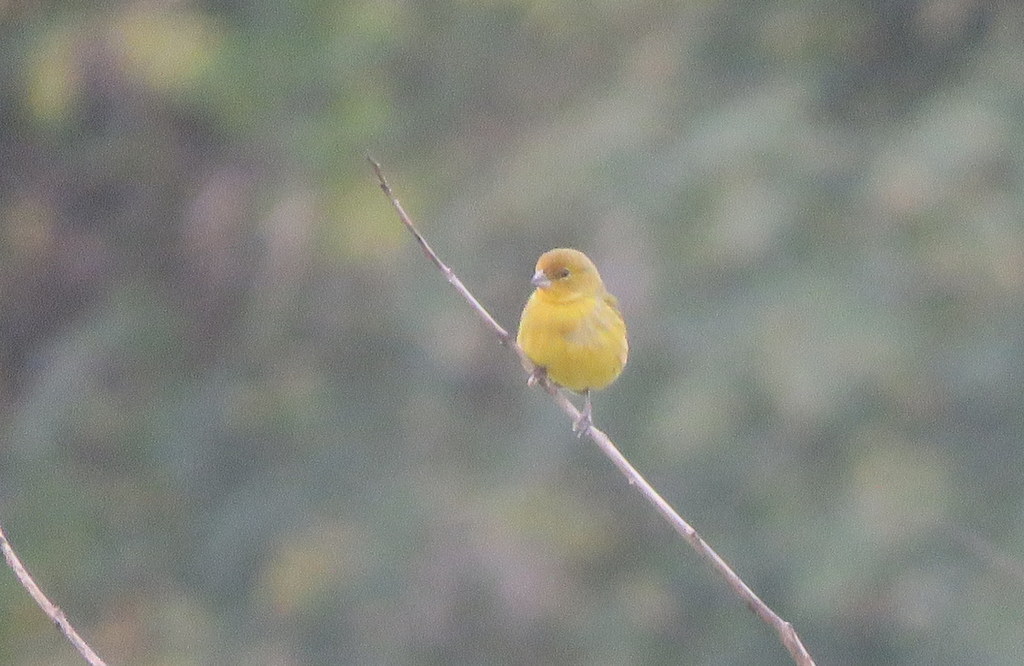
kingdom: Animalia
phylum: Chordata
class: Aves
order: Passeriformes
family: Thraupidae
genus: Sicalis
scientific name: Sicalis flaveola
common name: Saffron finch
